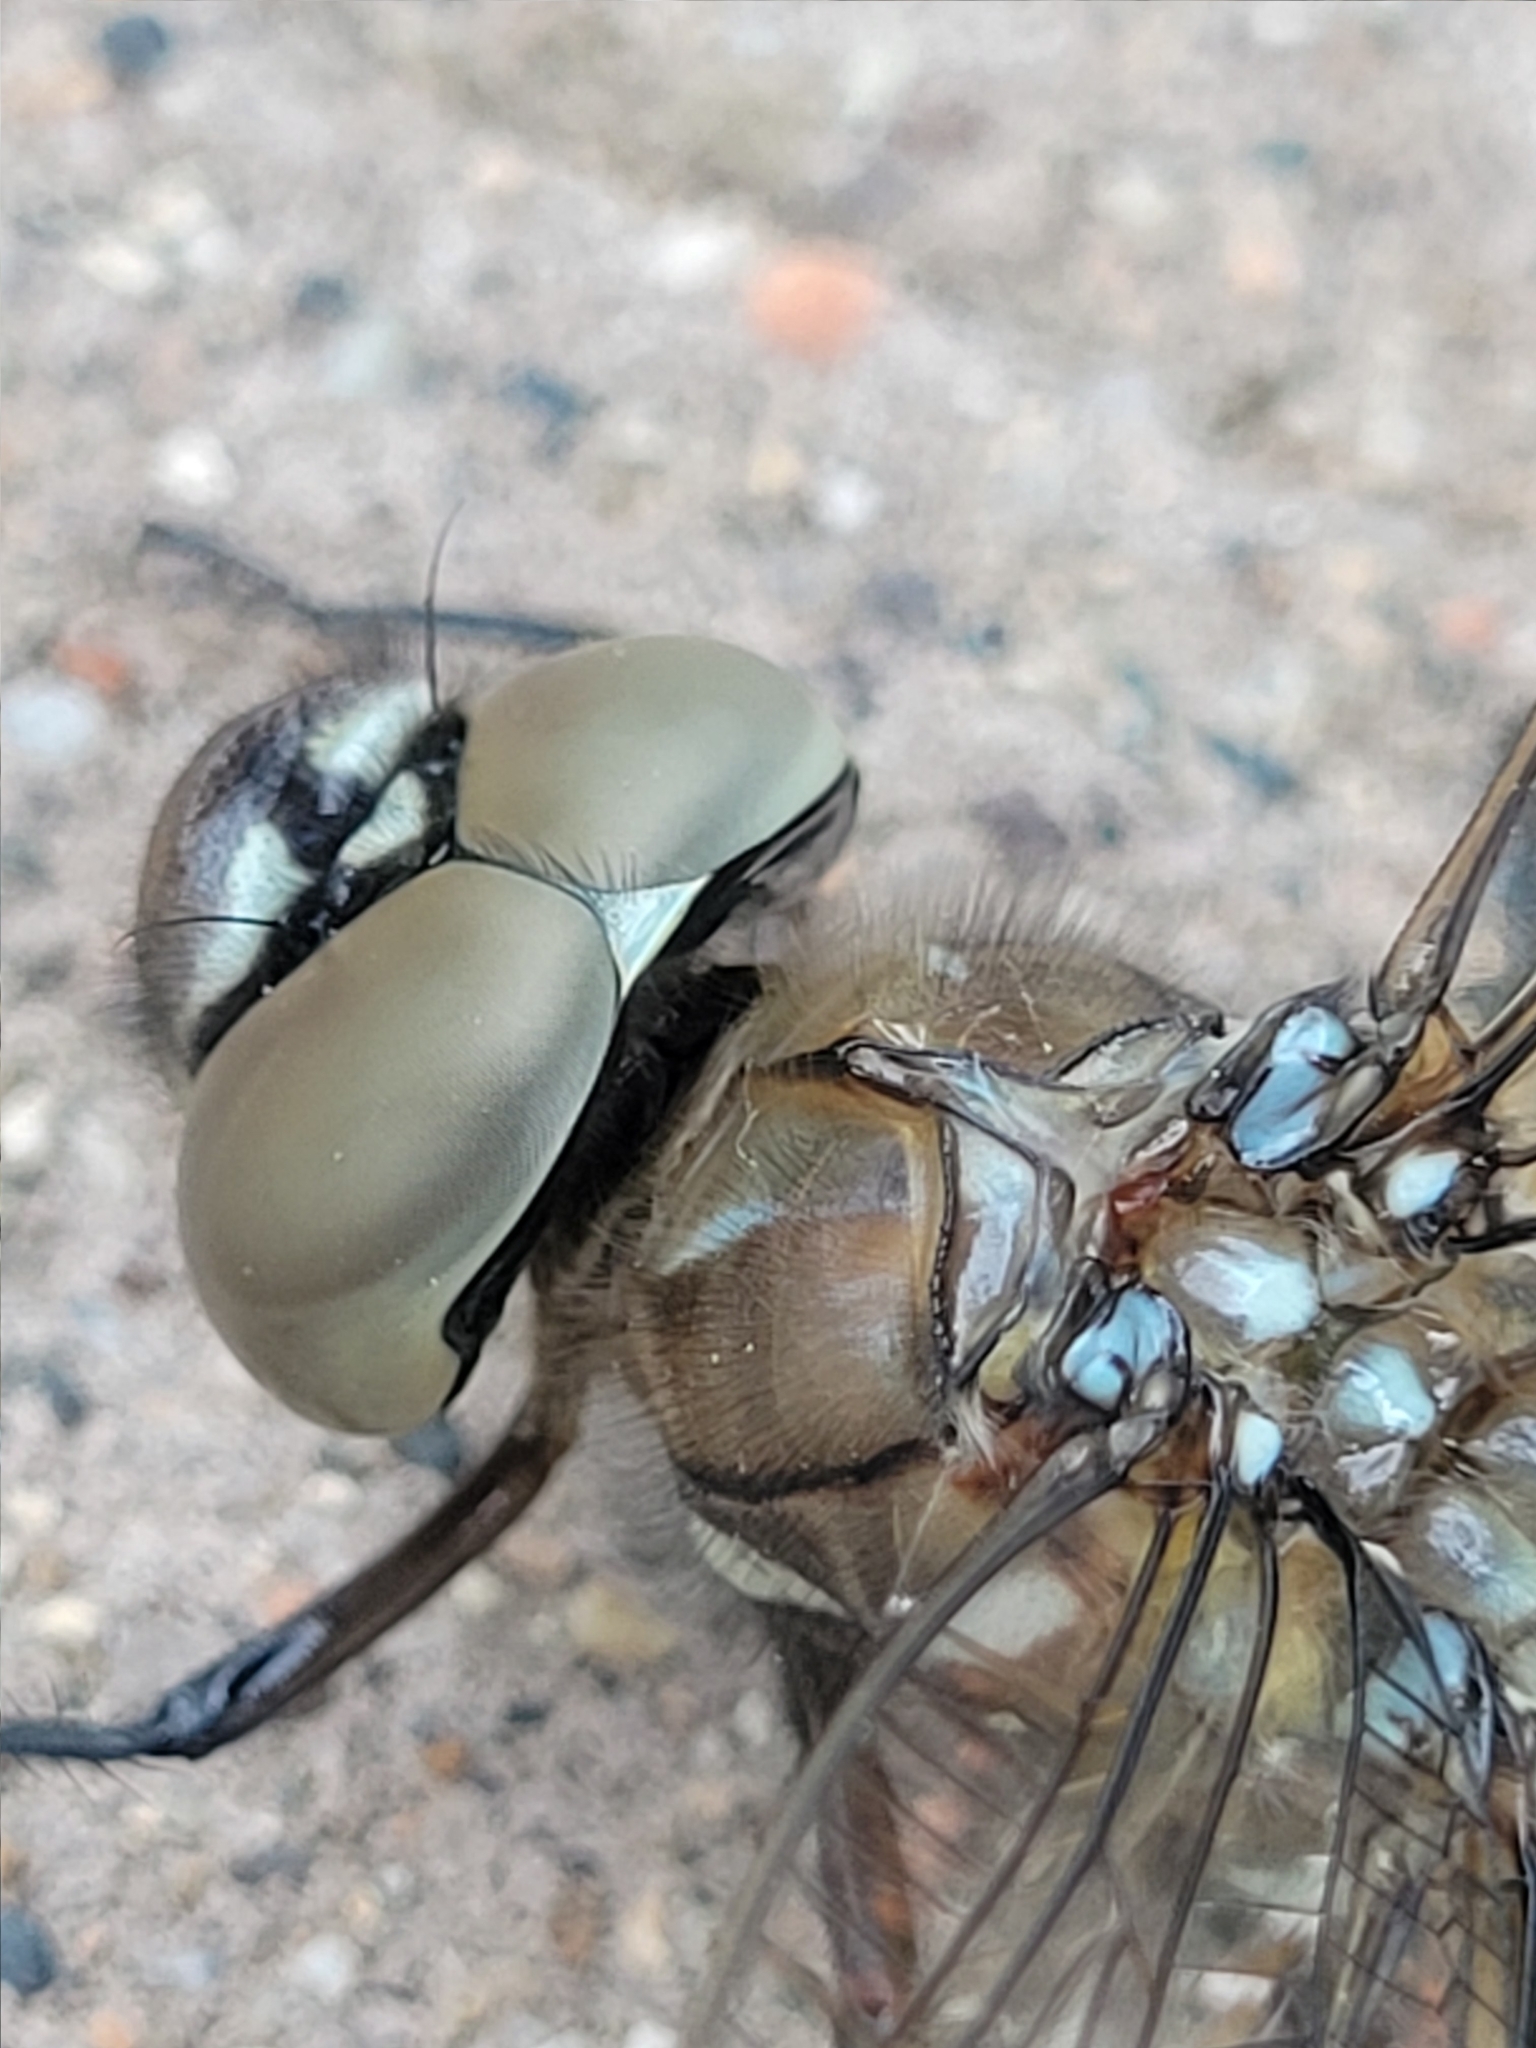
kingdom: Animalia
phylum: Arthropoda
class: Insecta
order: Odonata
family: Aeshnidae
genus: Aeshna
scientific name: Aeshna interrupta
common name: Variable darner
